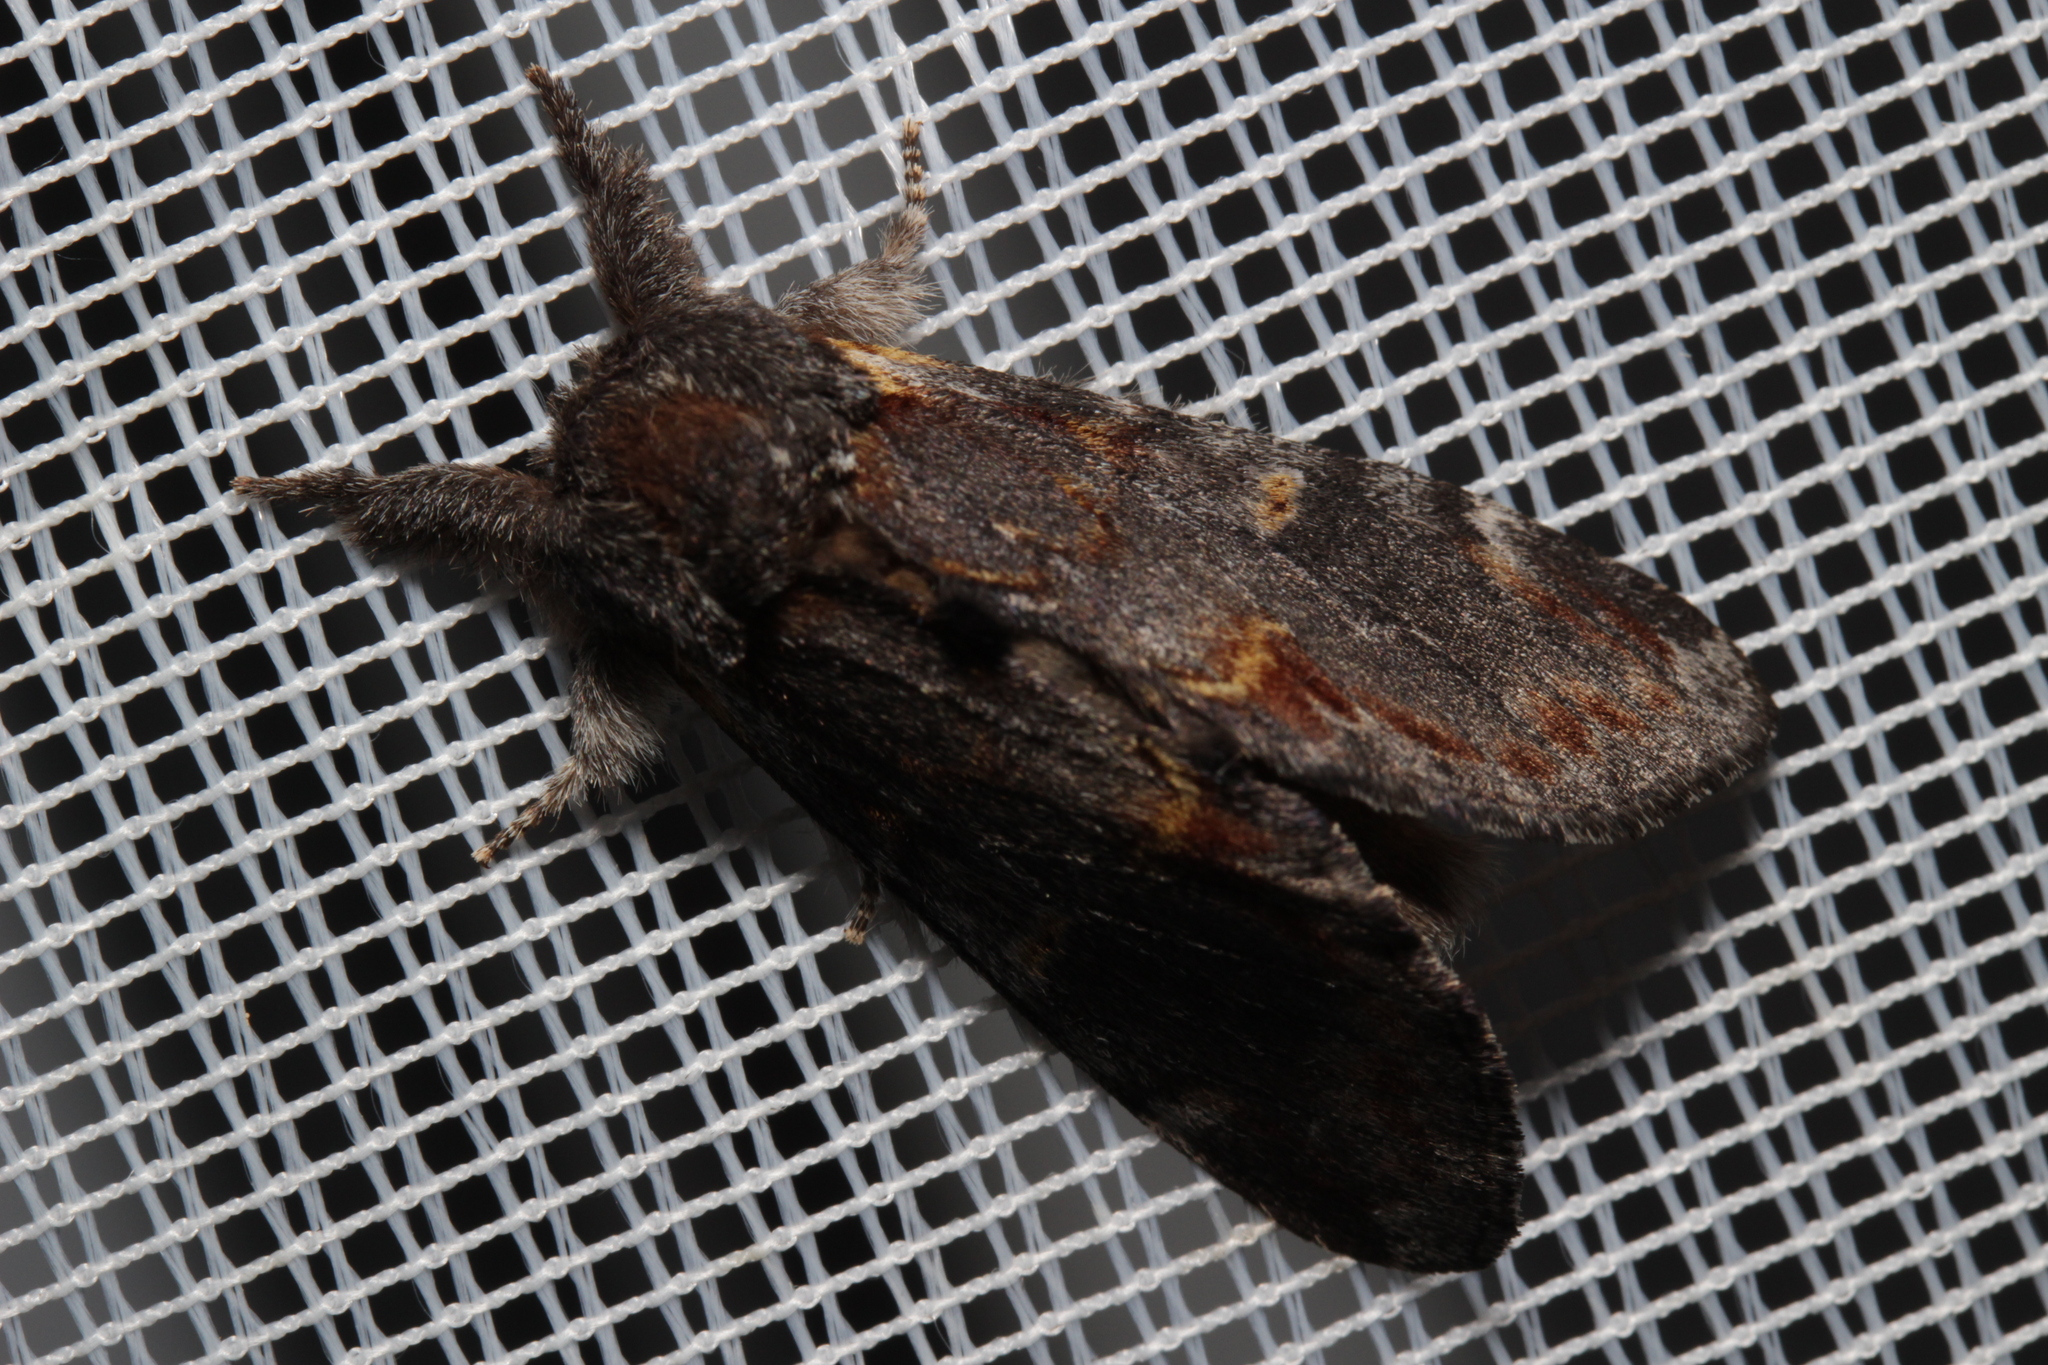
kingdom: Animalia
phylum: Arthropoda
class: Insecta
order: Lepidoptera
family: Notodontidae
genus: Notodonta
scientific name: Notodonta dromedarius
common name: Iron prominent
